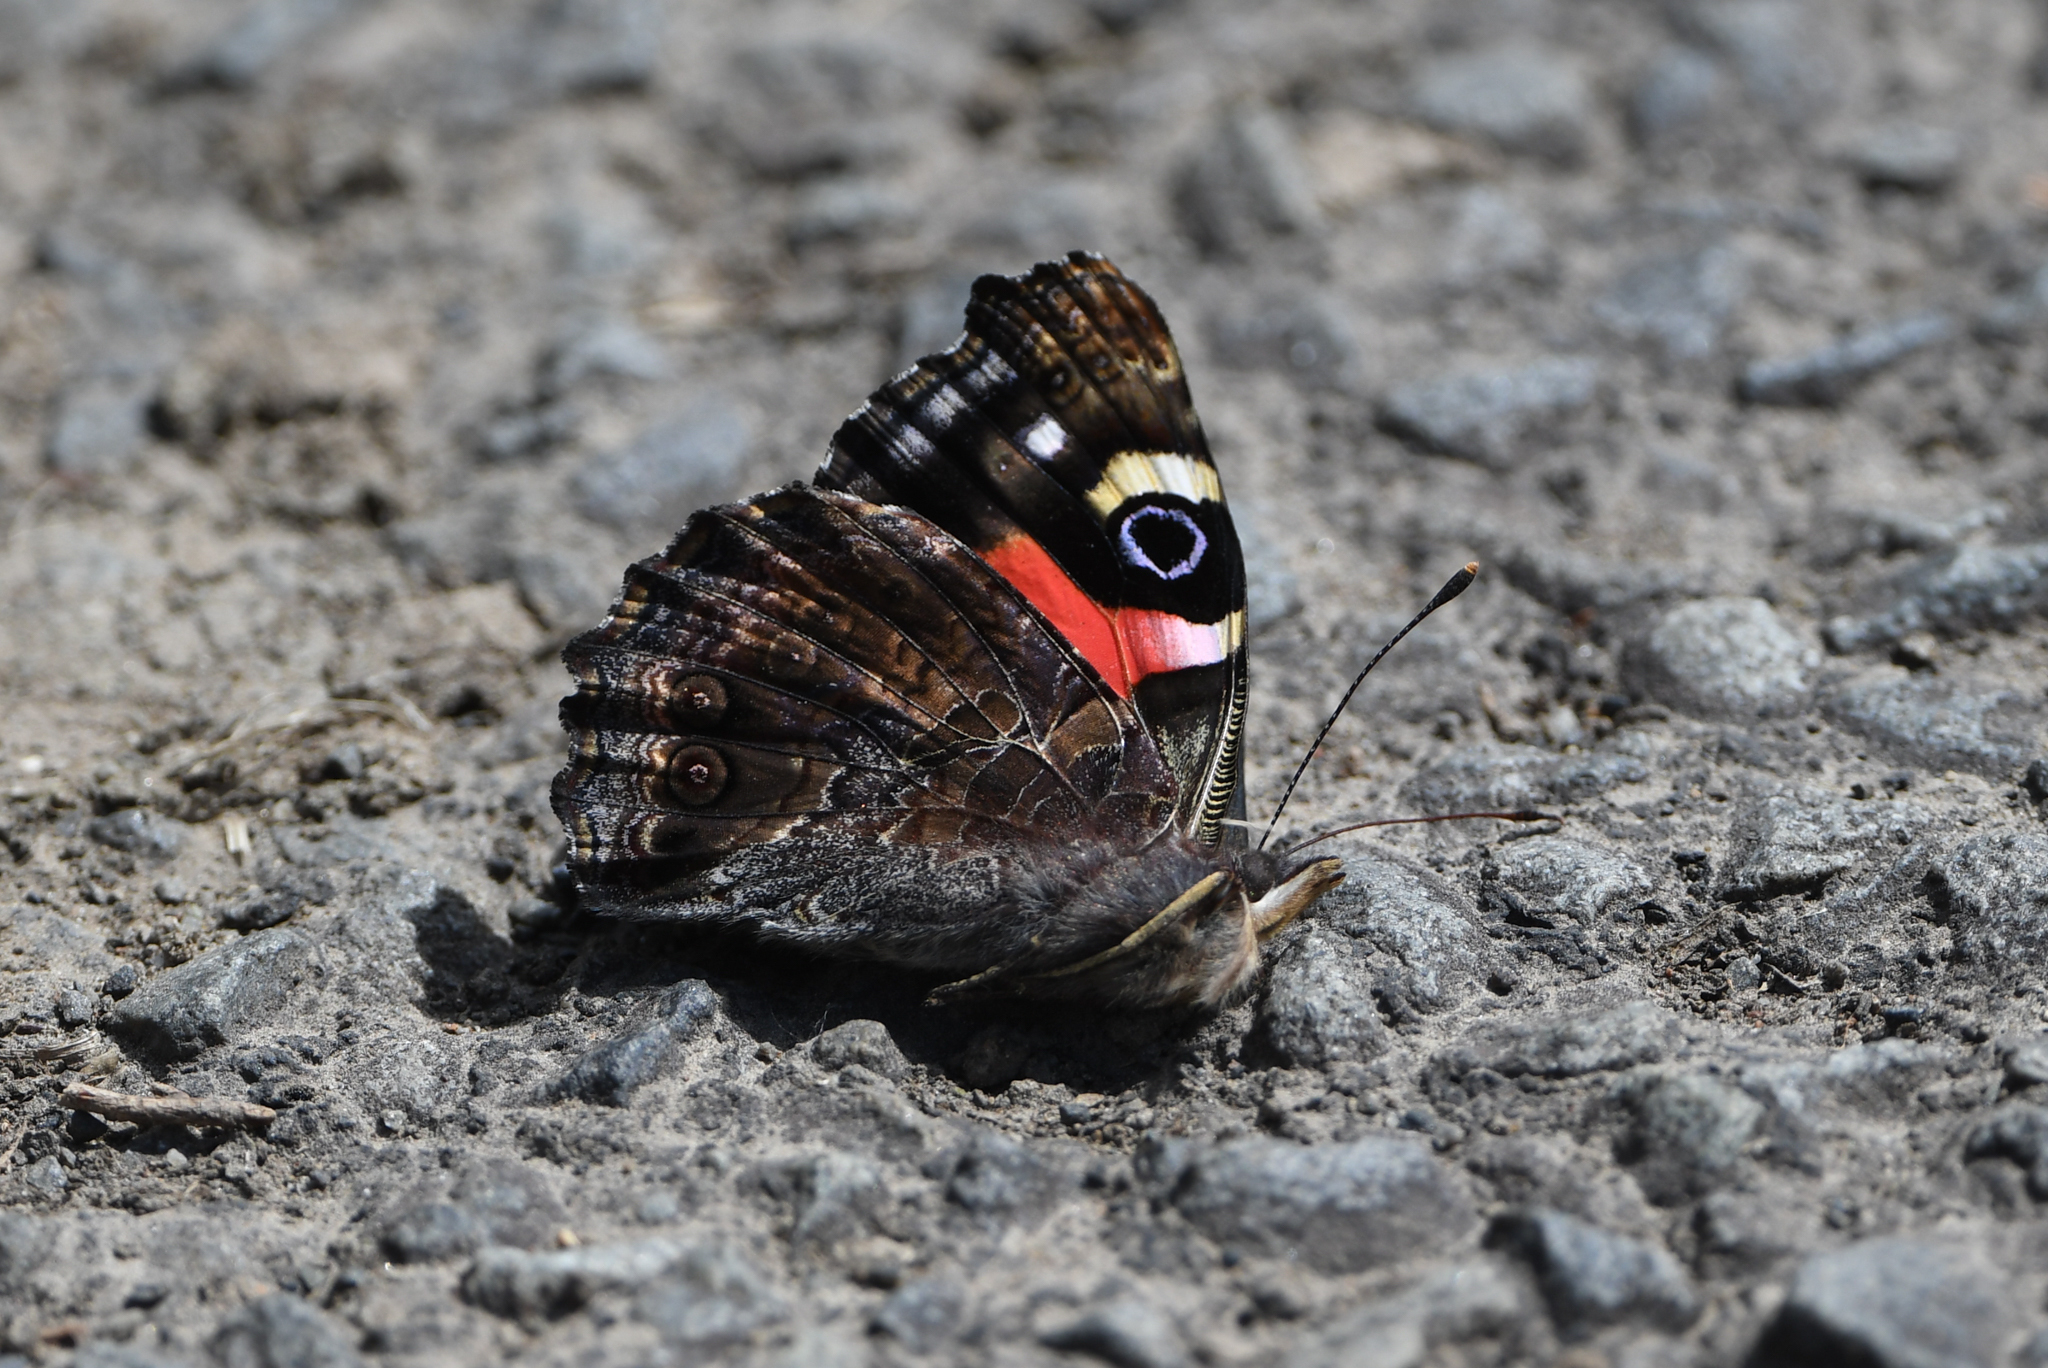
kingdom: Animalia
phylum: Arthropoda
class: Insecta
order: Lepidoptera
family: Nymphalidae
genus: Vanessa
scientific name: Vanessa gonerilla
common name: New zealand red admiral
